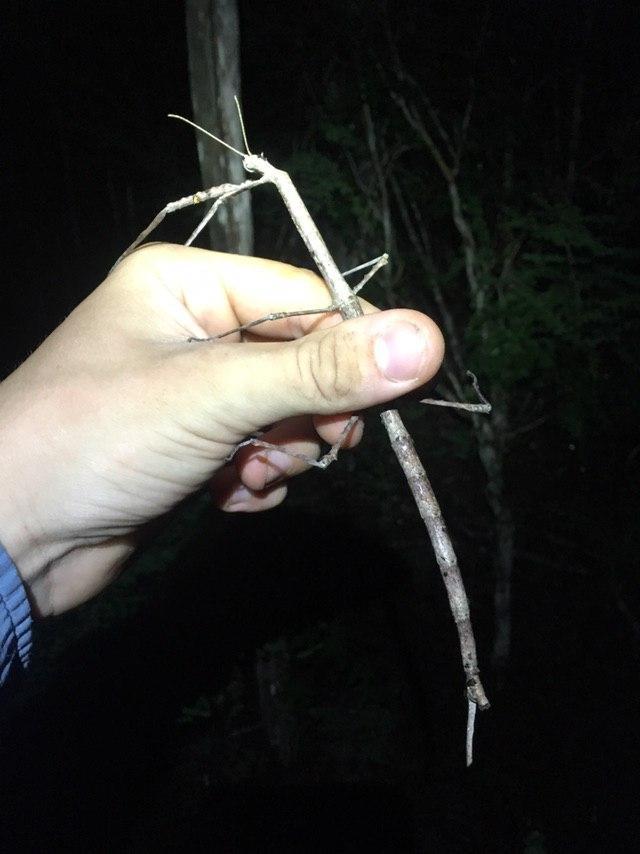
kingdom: Animalia
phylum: Arthropoda
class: Insecta
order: Phasmida
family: Phasmatidae
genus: Achrioptera
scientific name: Achrioptera impennis
